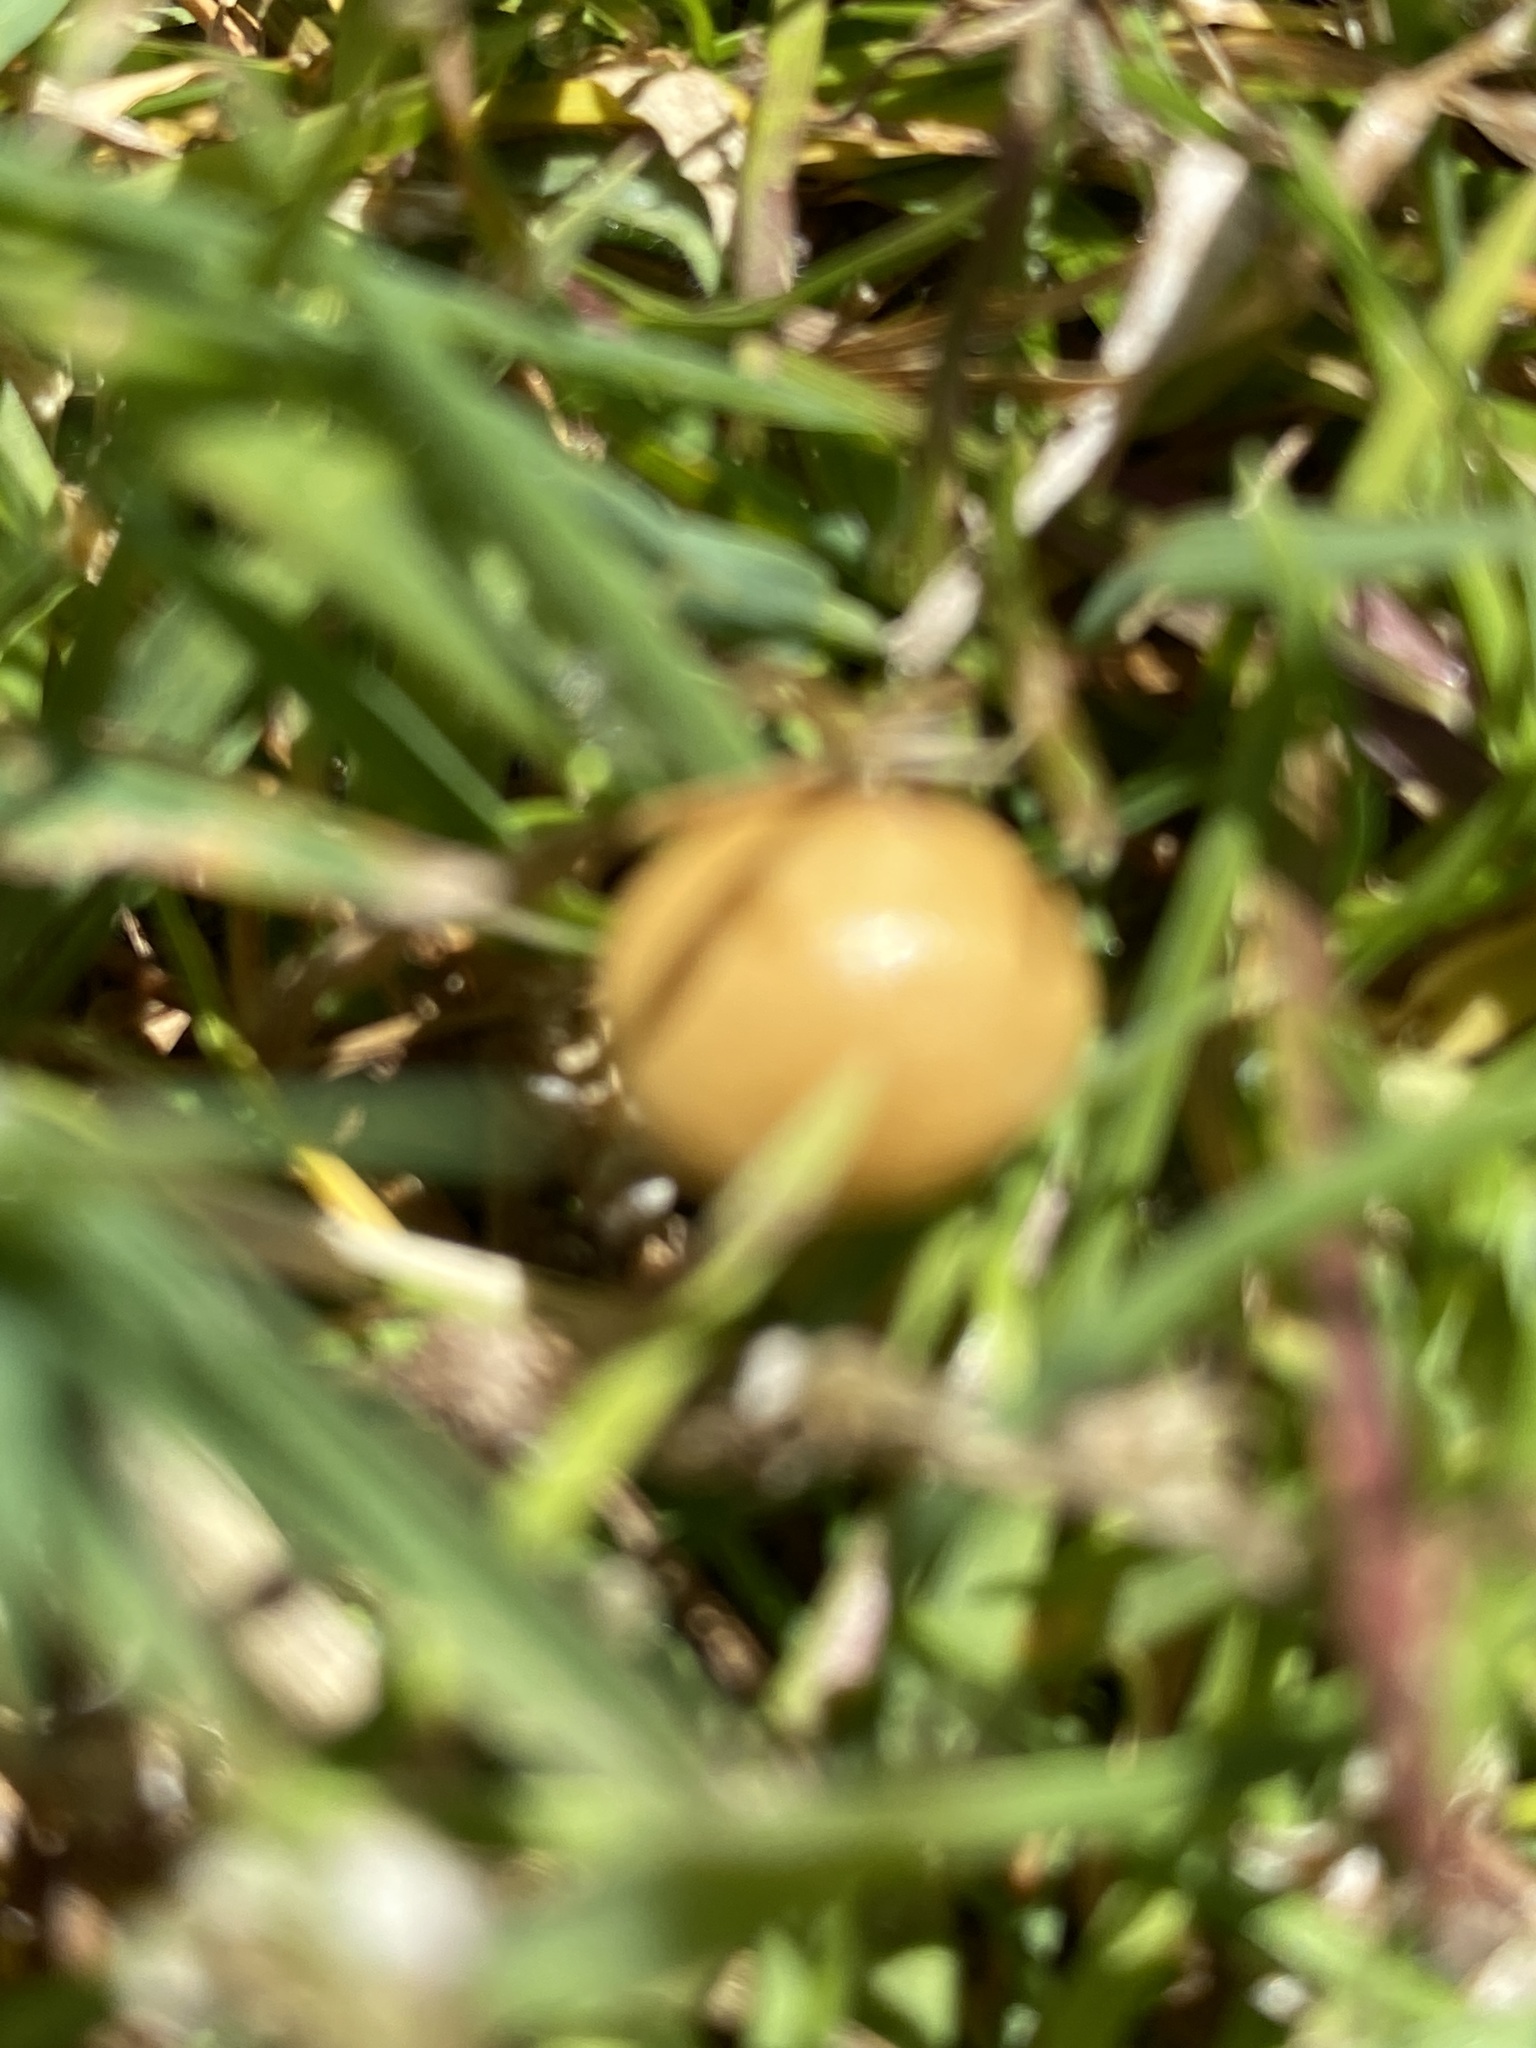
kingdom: Fungi
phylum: Basidiomycota
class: Agaricomycetes
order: Agaricales
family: Strophariaceae
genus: Agrocybe
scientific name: Agrocybe pediades
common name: Common fieldcap
